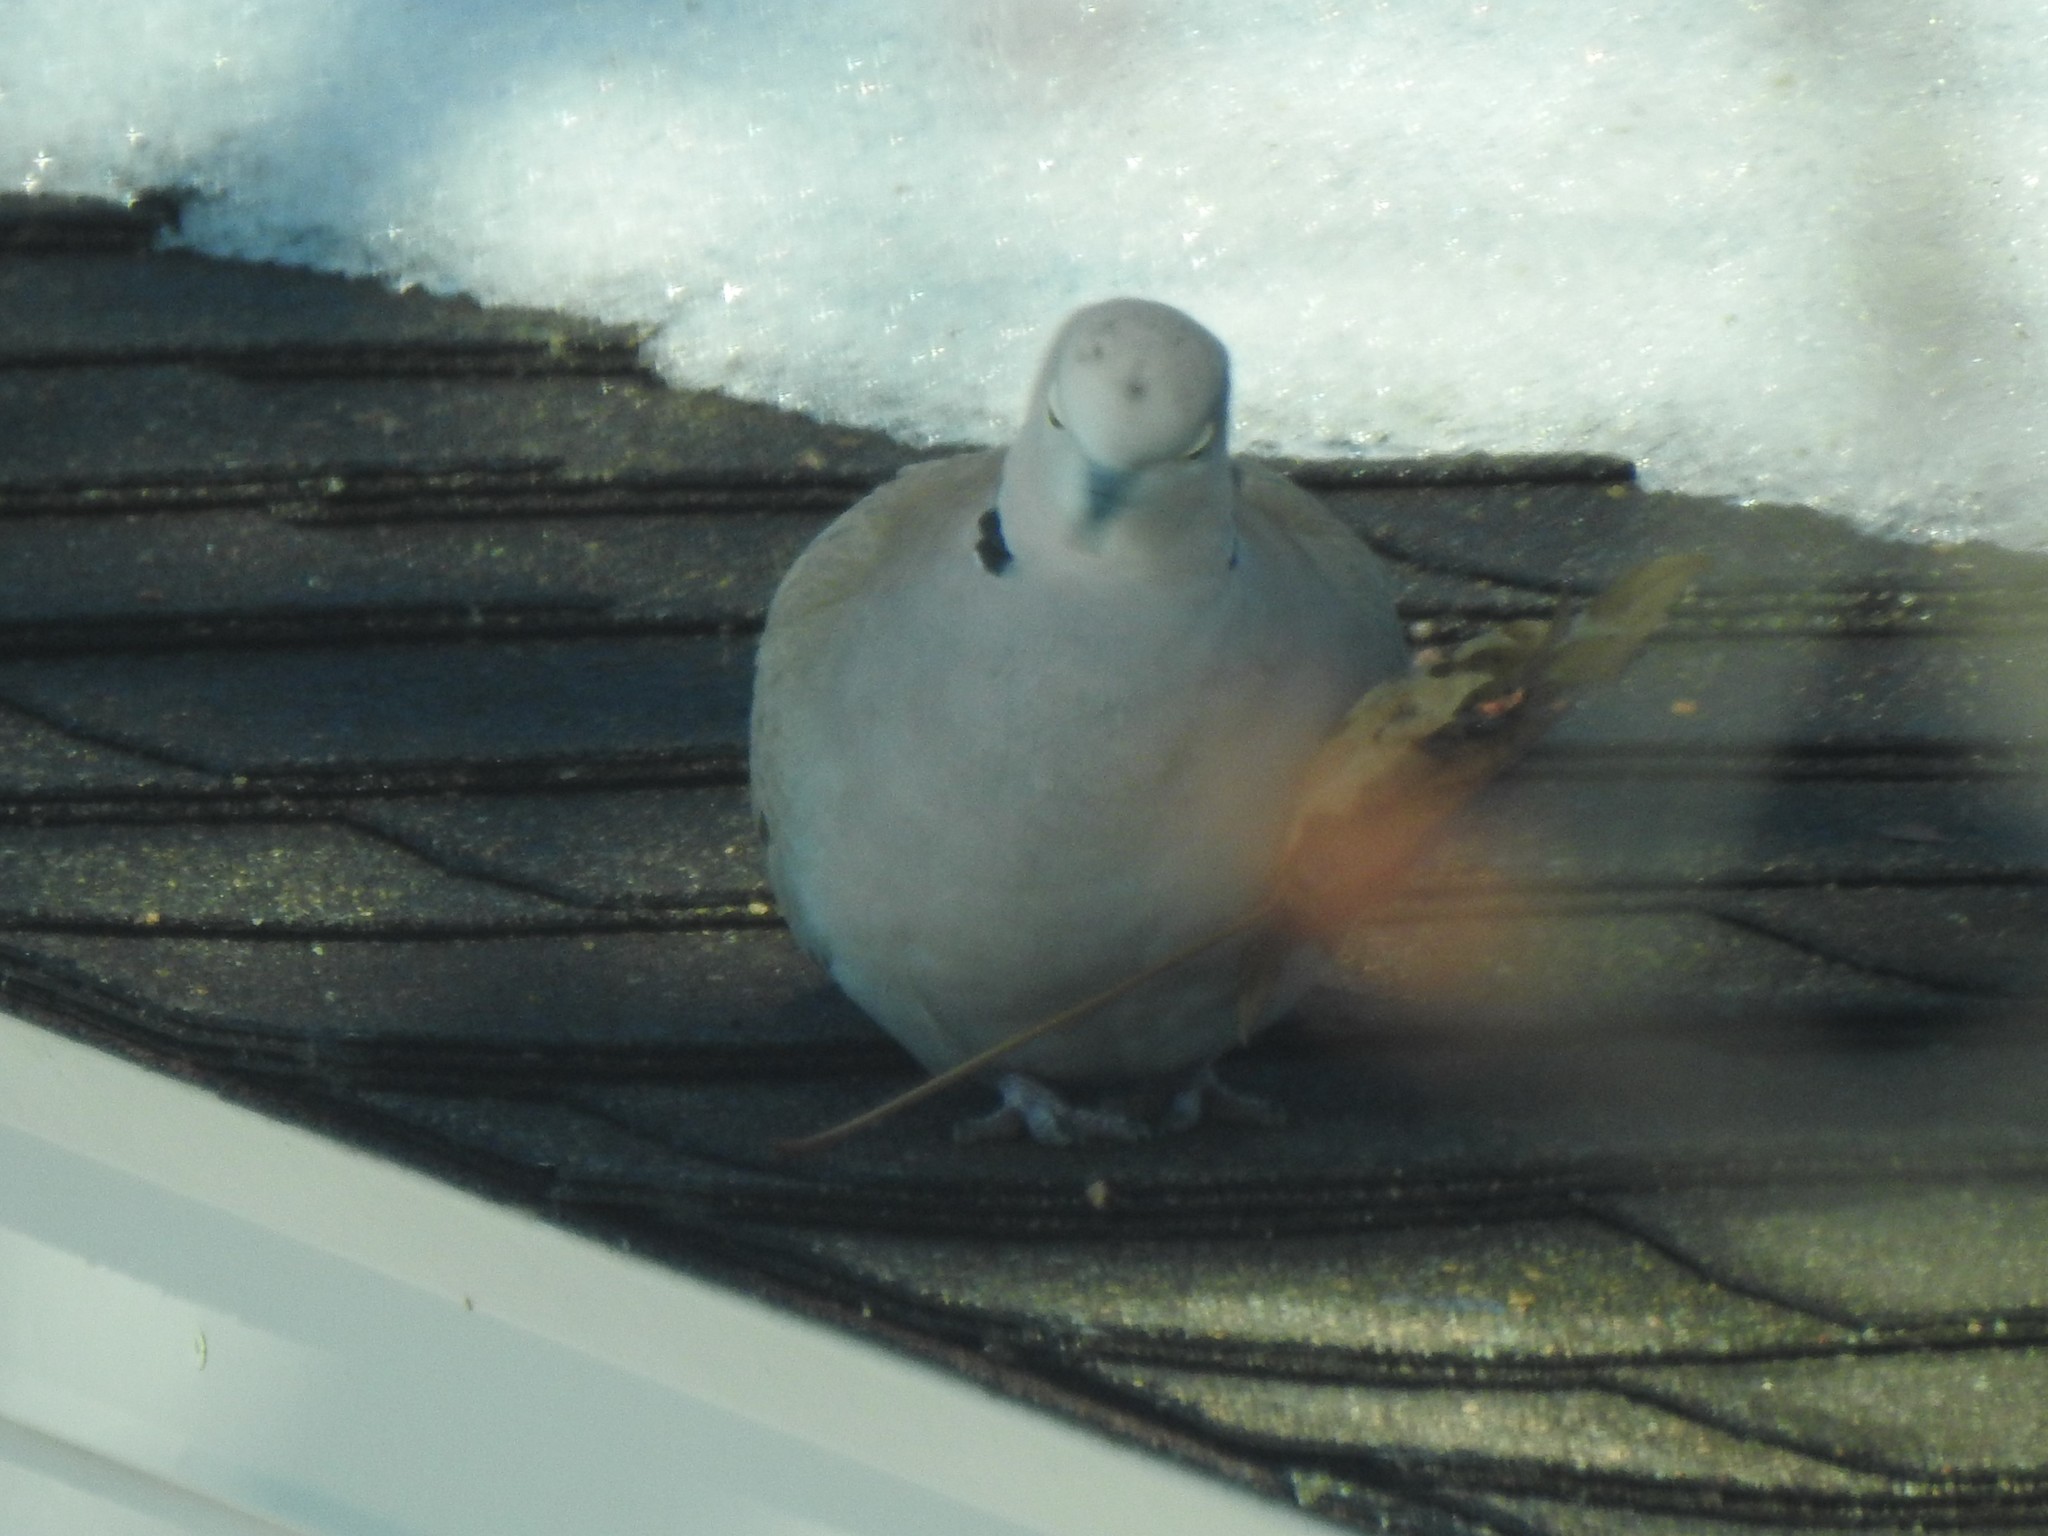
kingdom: Animalia
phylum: Chordata
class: Aves
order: Columbiformes
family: Columbidae
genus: Streptopelia
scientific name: Streptopelia decaocto
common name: Eurasian collared dove
